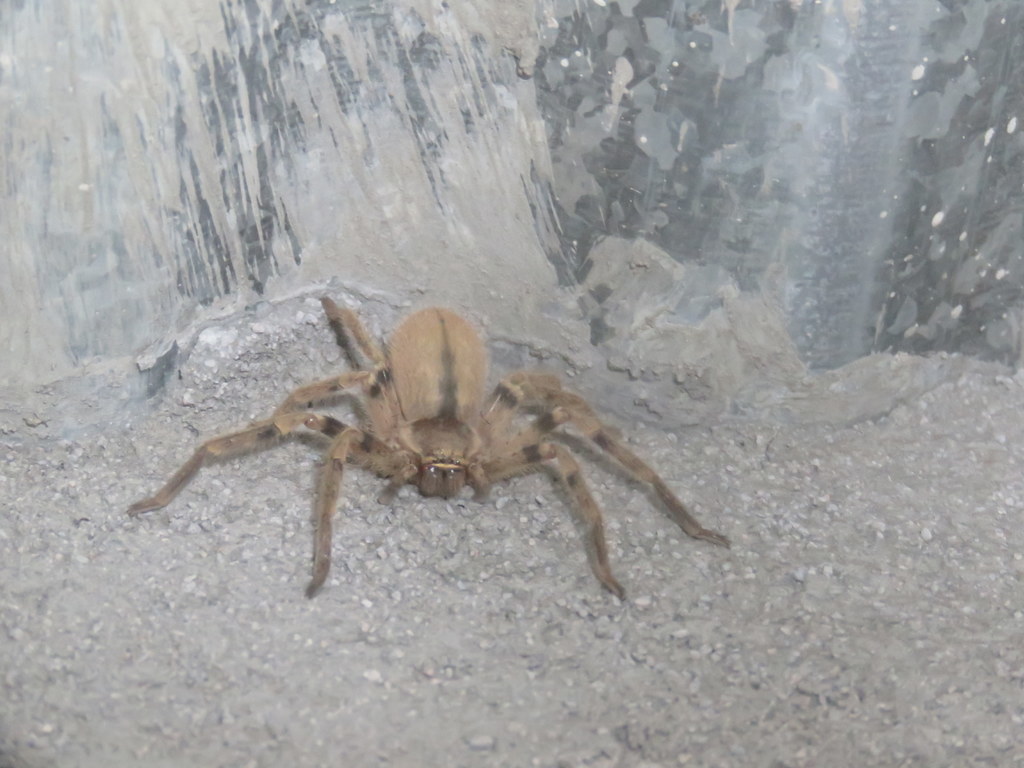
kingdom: Animalia
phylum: Arthropoda
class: Arachnida
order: Araneae
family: Sparassidae
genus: Polybetes
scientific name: Polybetes
